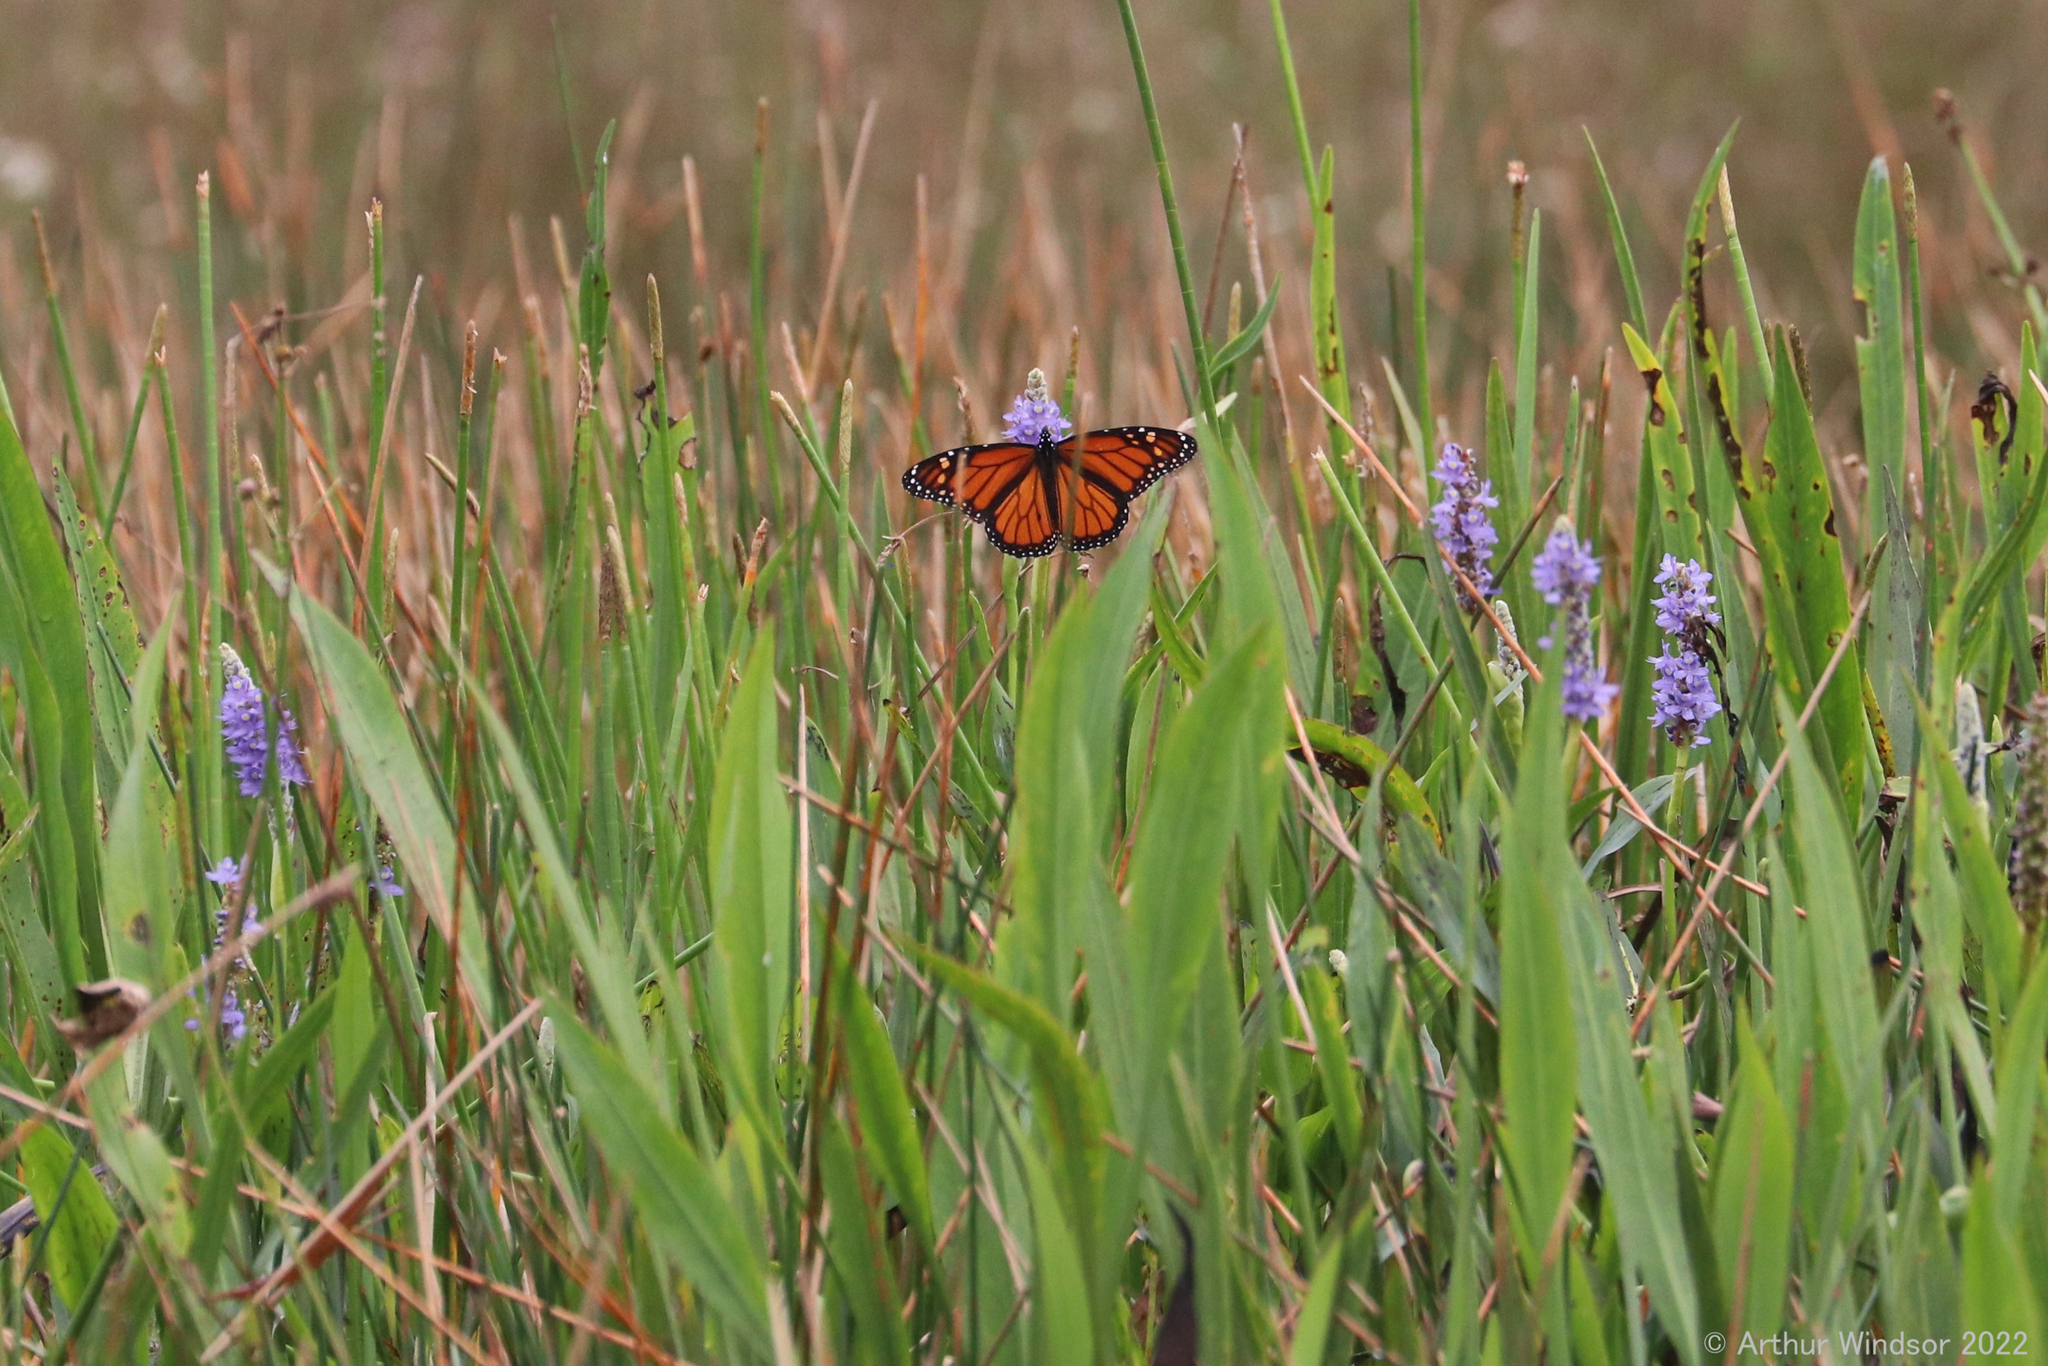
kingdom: Animalia
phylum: Arthropoda
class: Insecta
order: Lepidoptera
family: Nymphalidae
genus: Danaus
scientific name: Danaus plexippus
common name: Monarch
